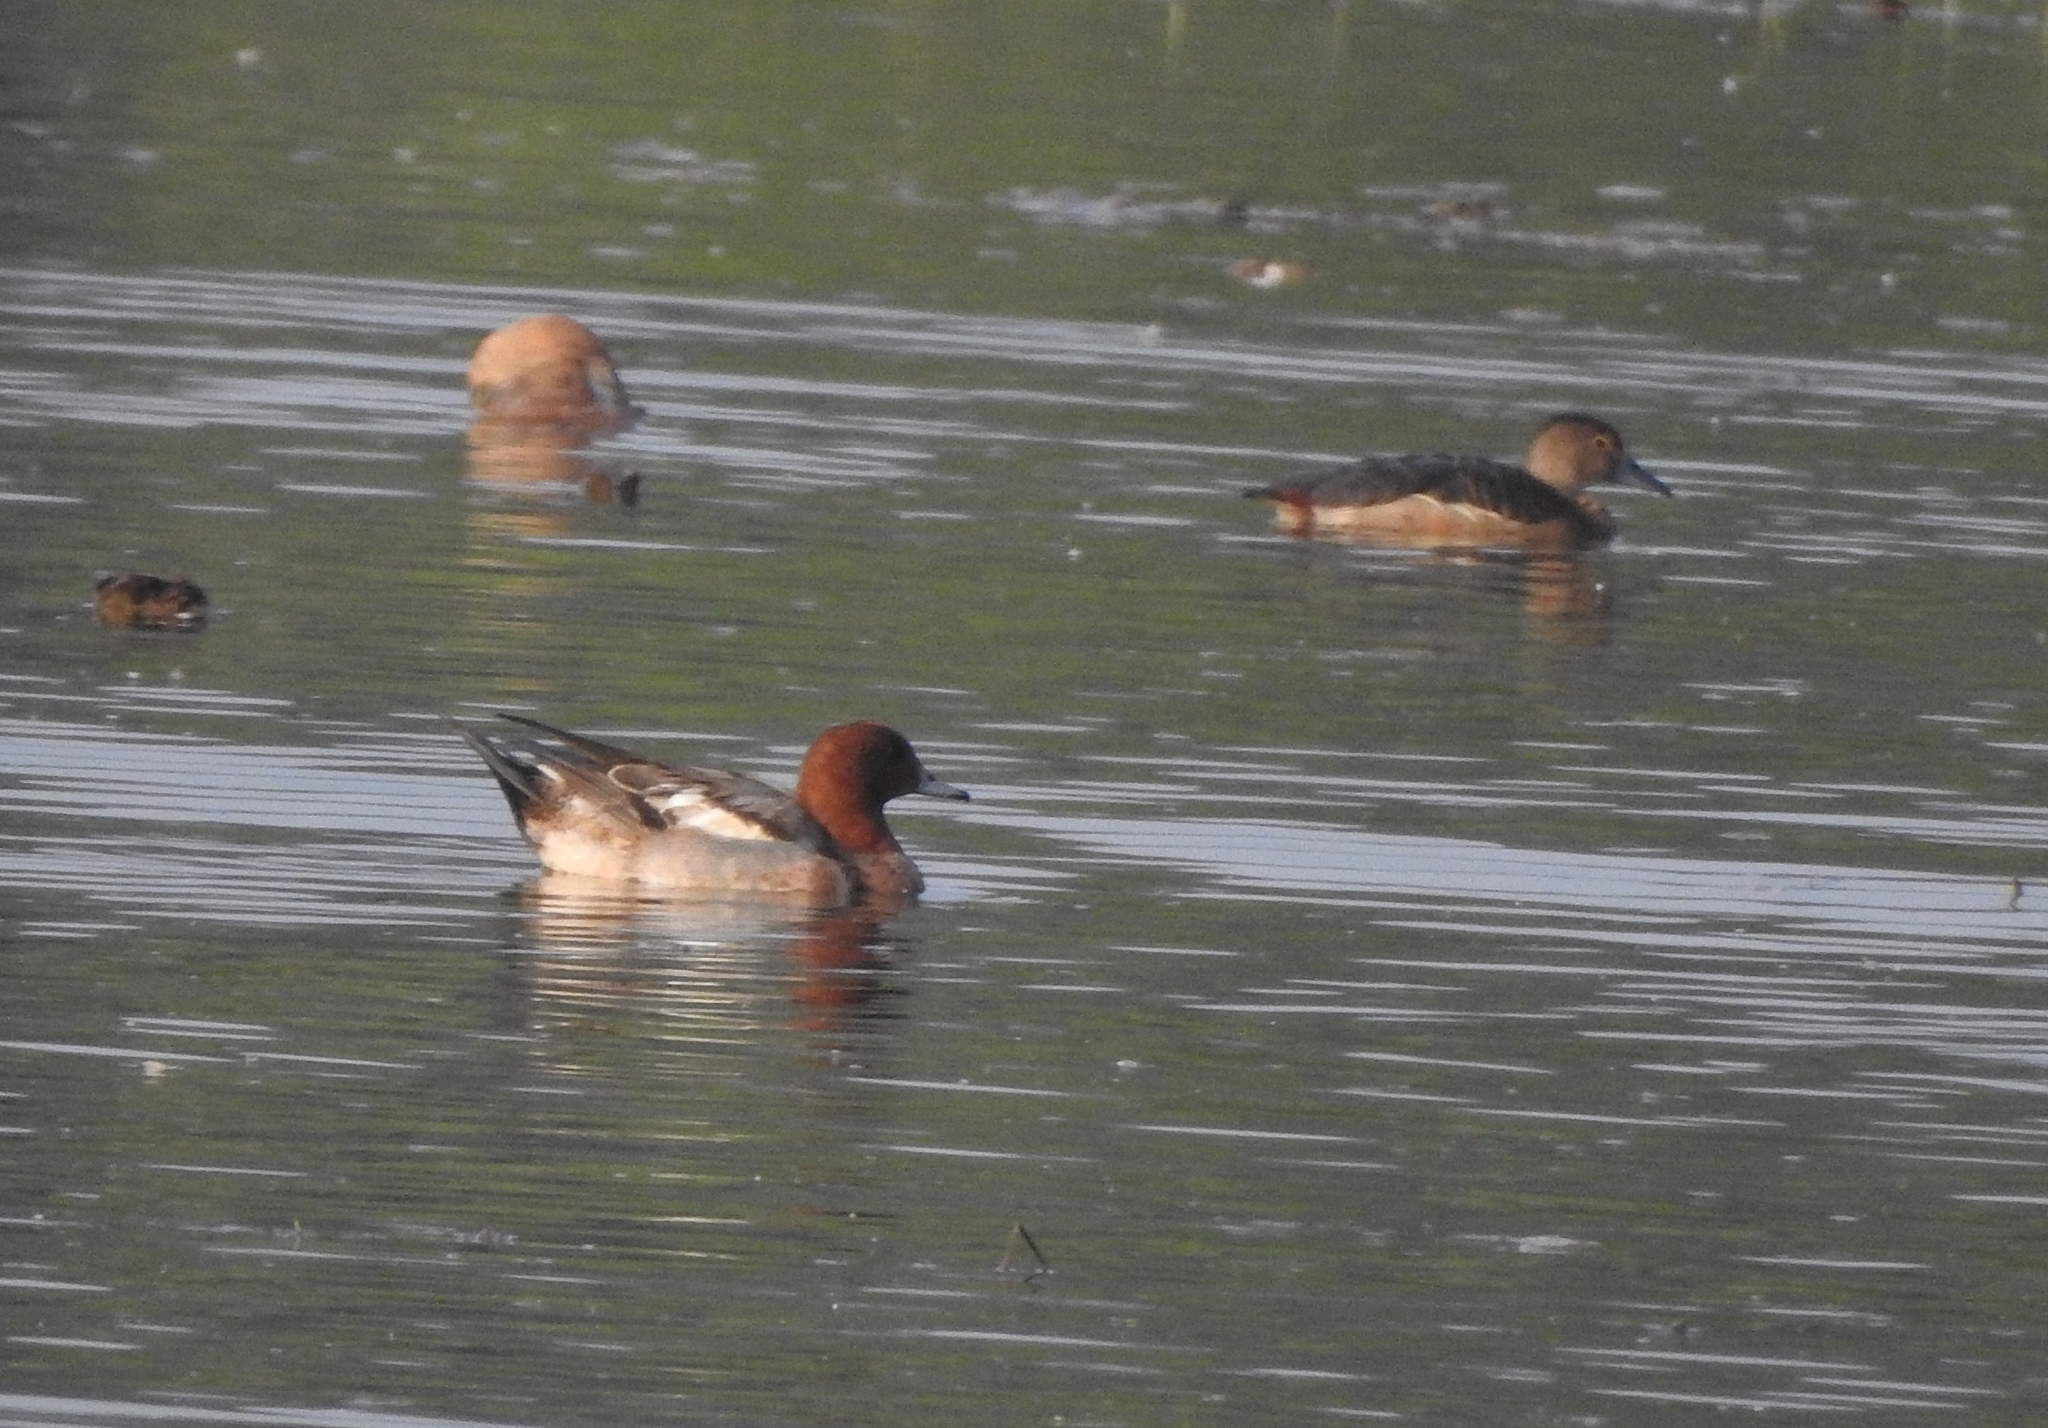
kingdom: Animalia
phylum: Chordata
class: Aves
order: Anseriformes
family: Anatidae
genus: Mareca
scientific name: Mareca penelope
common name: Eurasian wigeon
